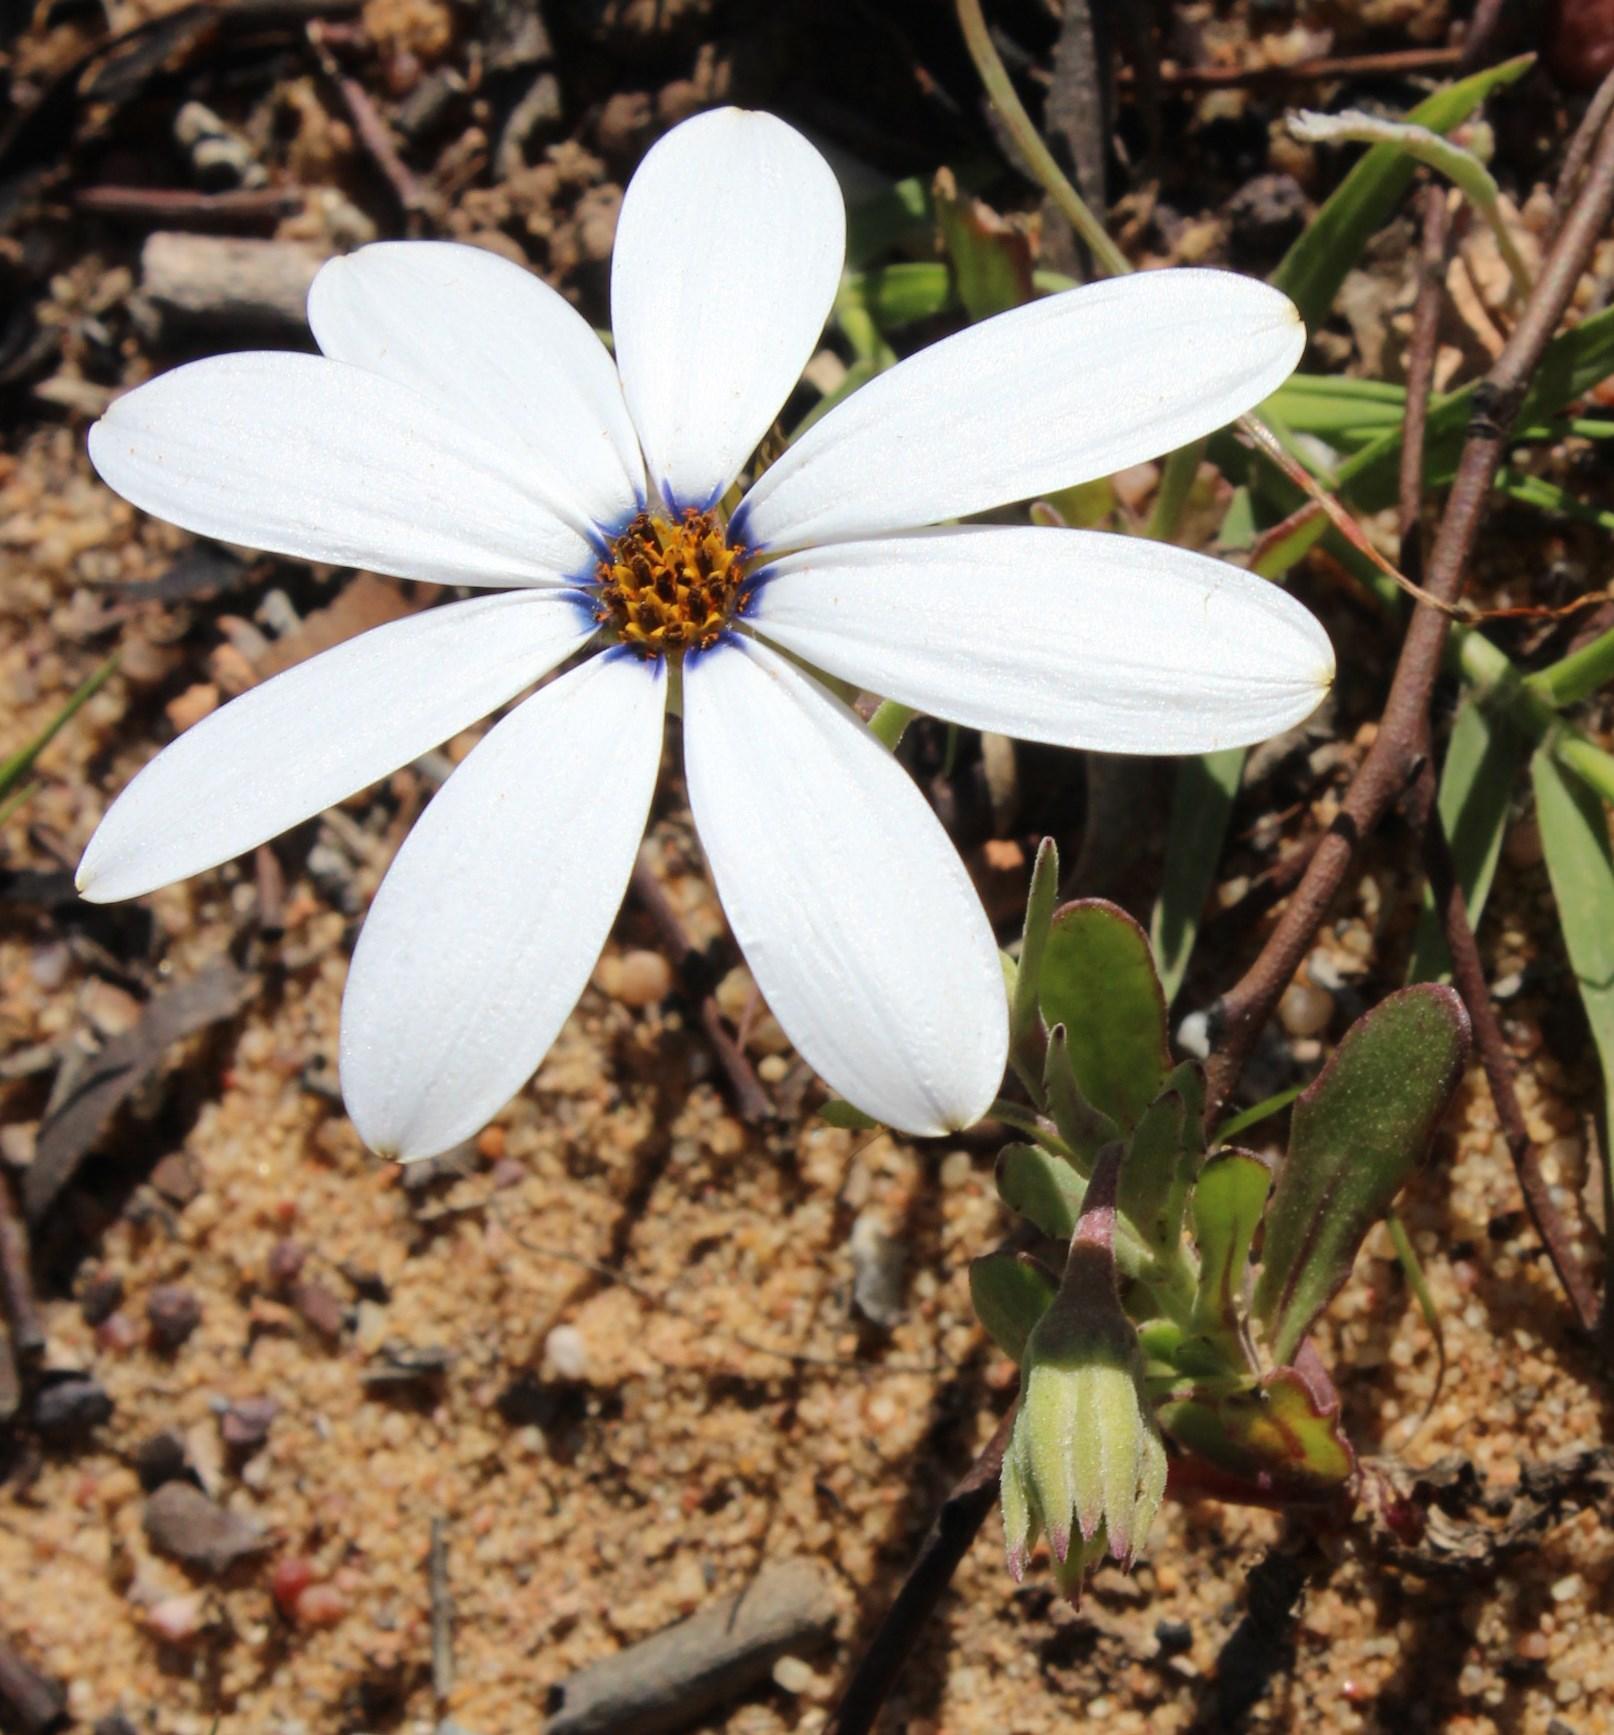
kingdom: Plantae
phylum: Tracheophyta
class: Magnoliopsida
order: Asterales
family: Asteraceae
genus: Dimorphotheca
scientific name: Dimorphotheca pluvialis
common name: Weather prophet
